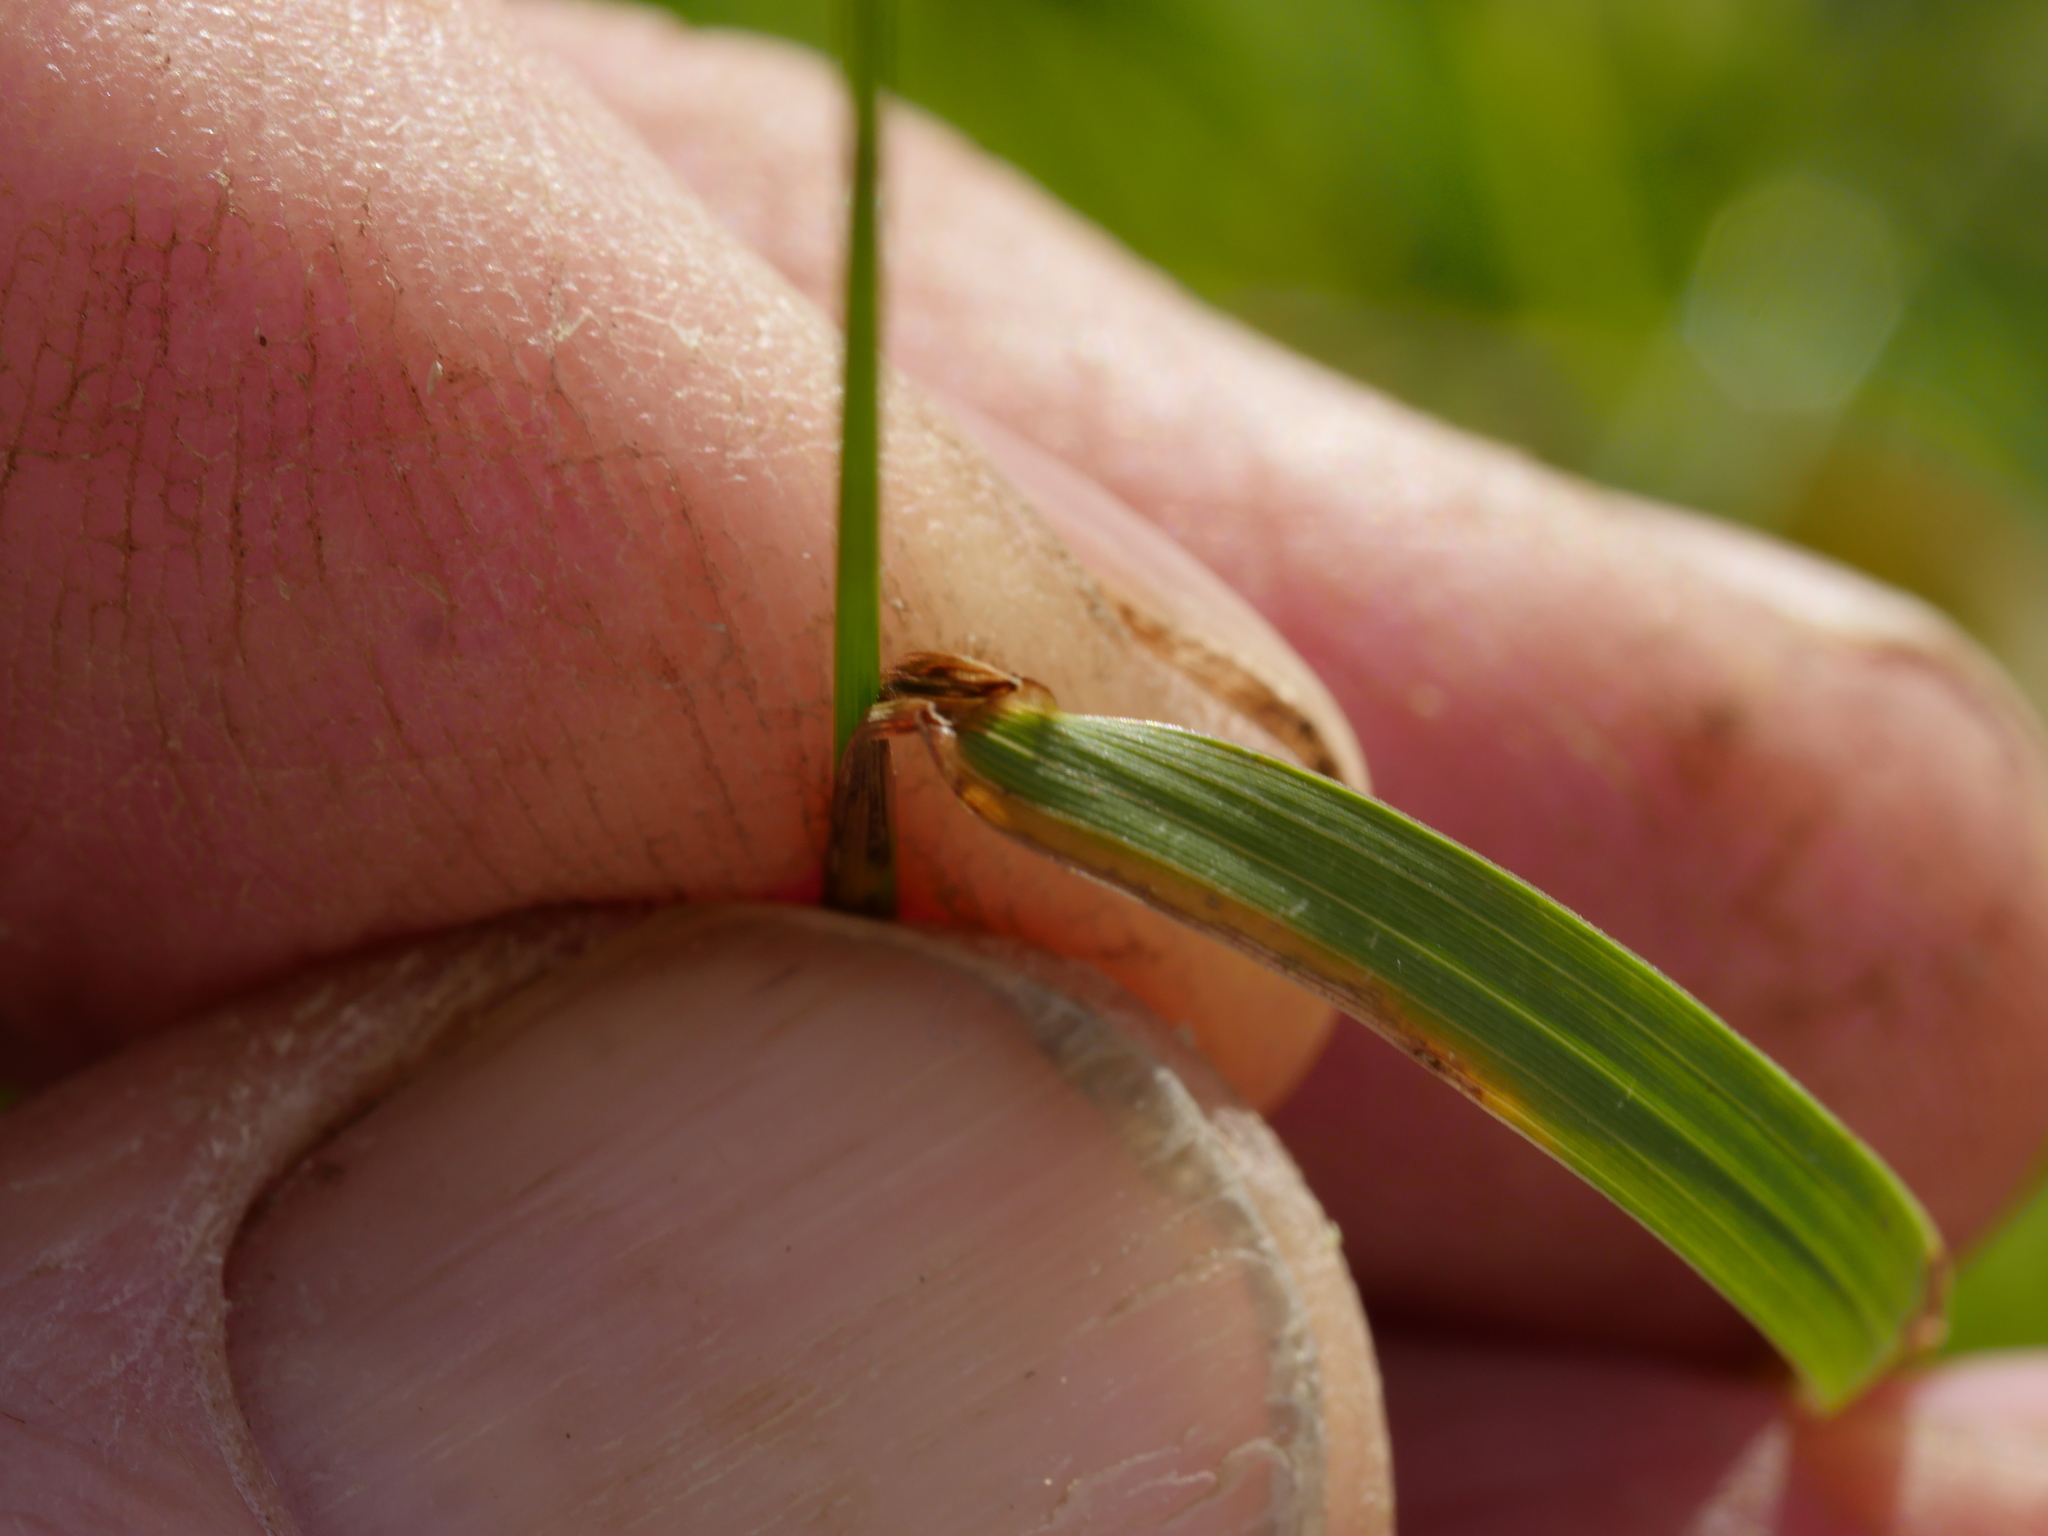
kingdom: Plantae
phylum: Tracheophyta
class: Liliopsida
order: Poales
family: Poaceae
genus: Microlaena
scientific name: Microlaena stipoides
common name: Meadow ricegrass
